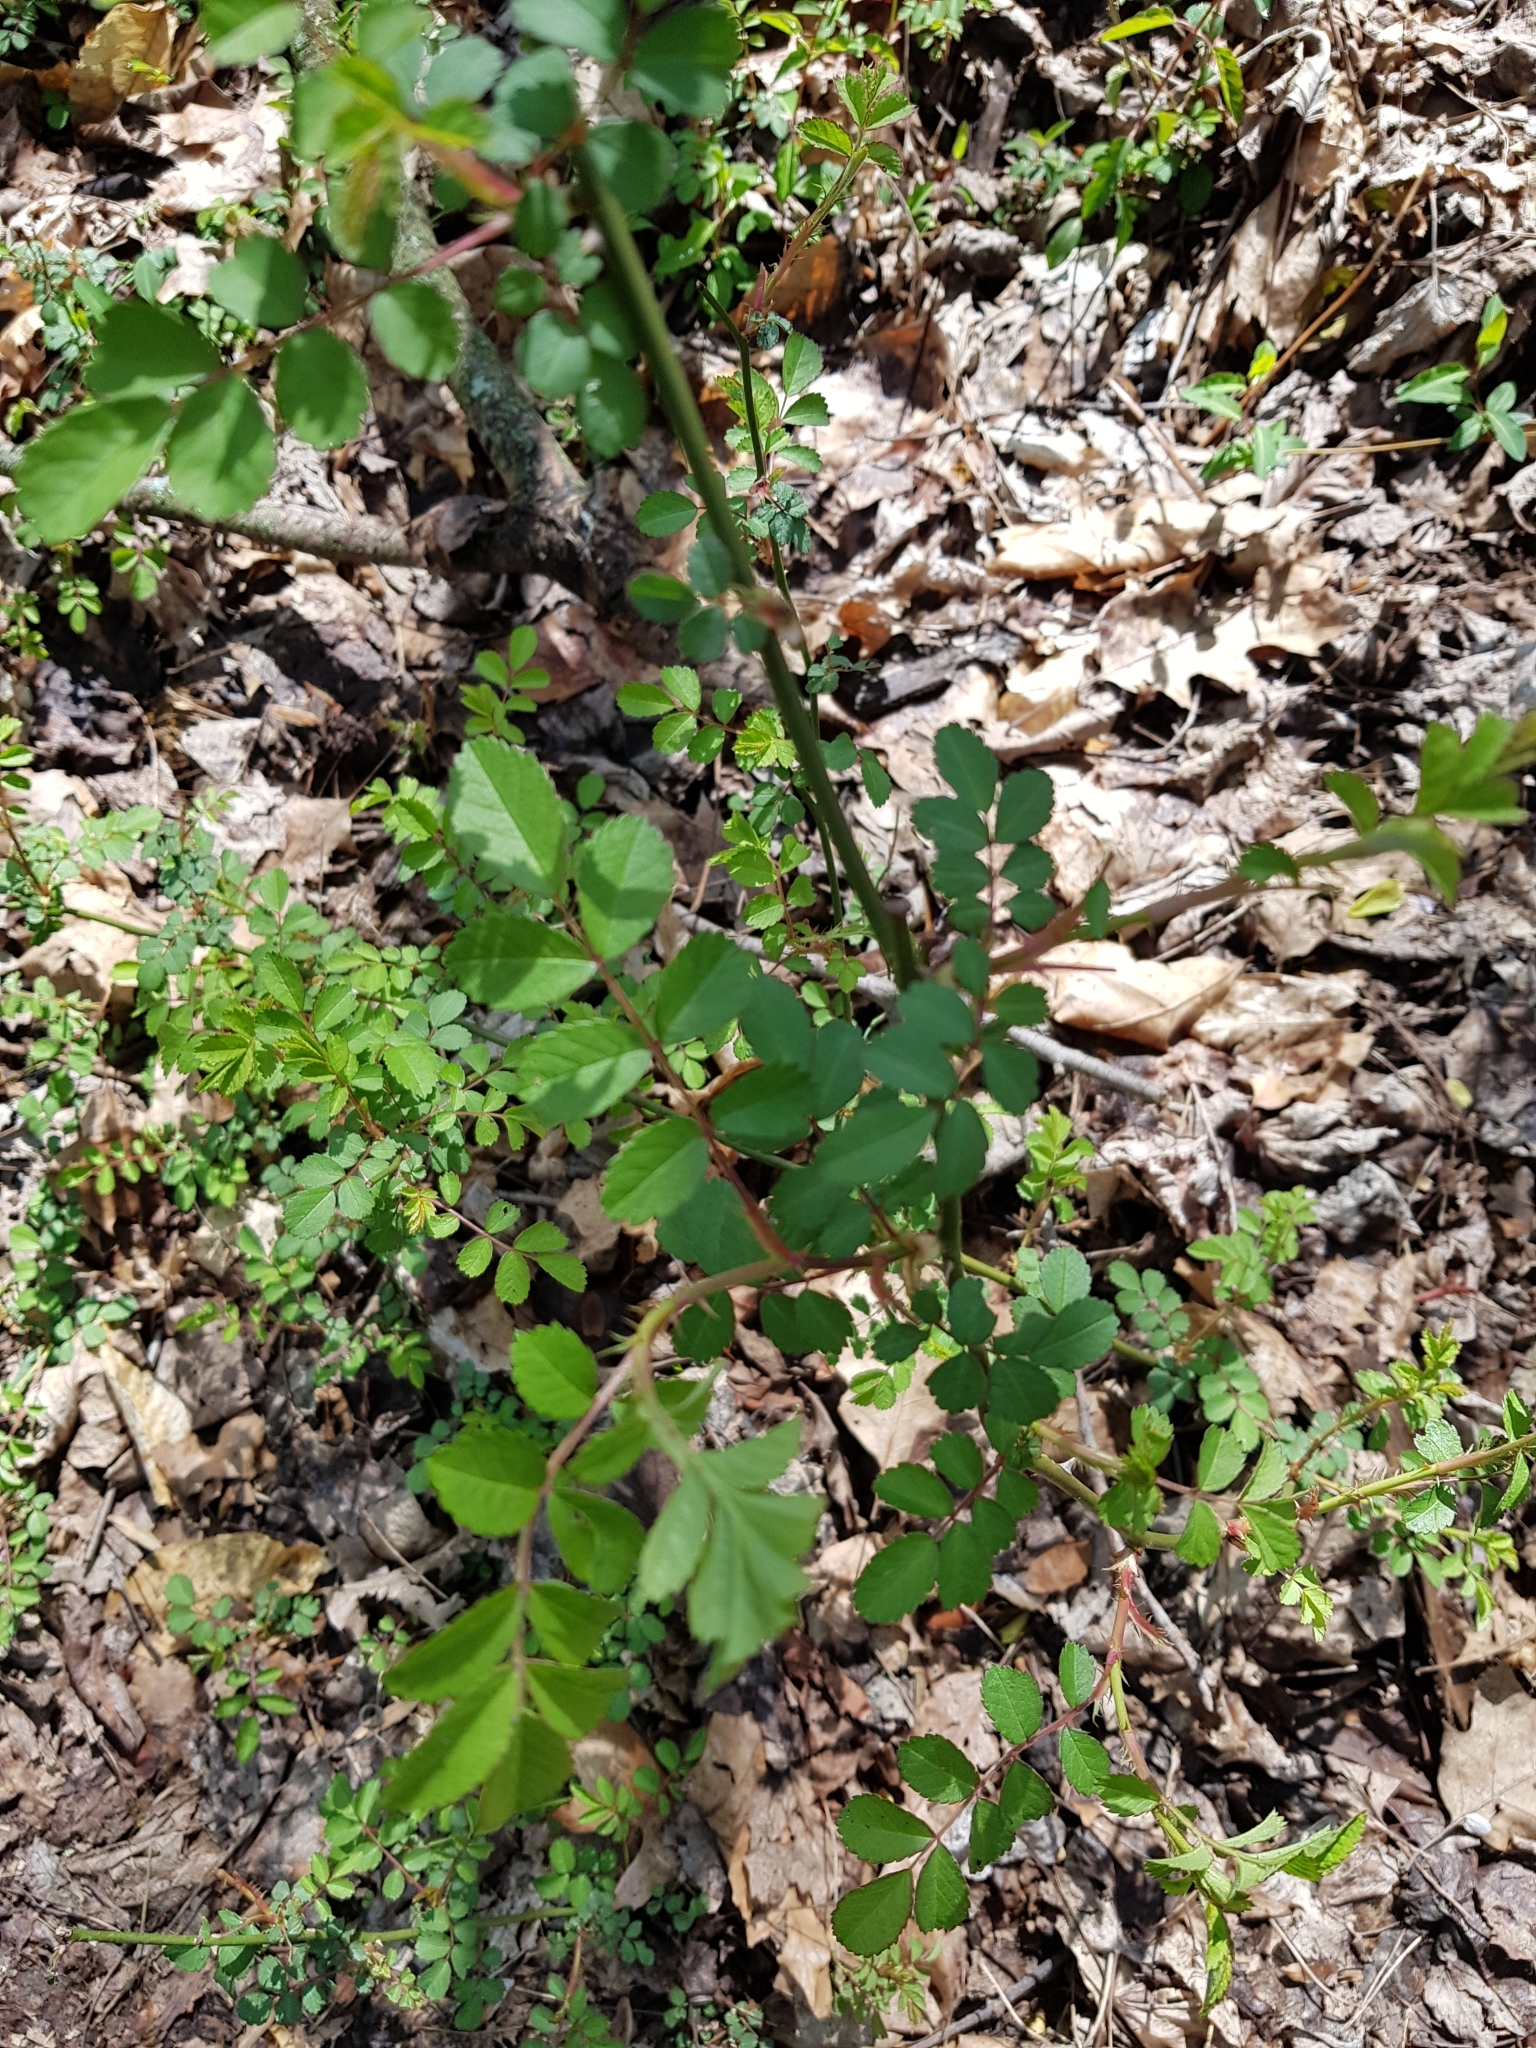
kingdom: Plantae
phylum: Tracheophyta
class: Magnoliopsida
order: Rosales
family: Rosaceae
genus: Rosa
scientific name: Rosa multiflora
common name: Multiflora rose
